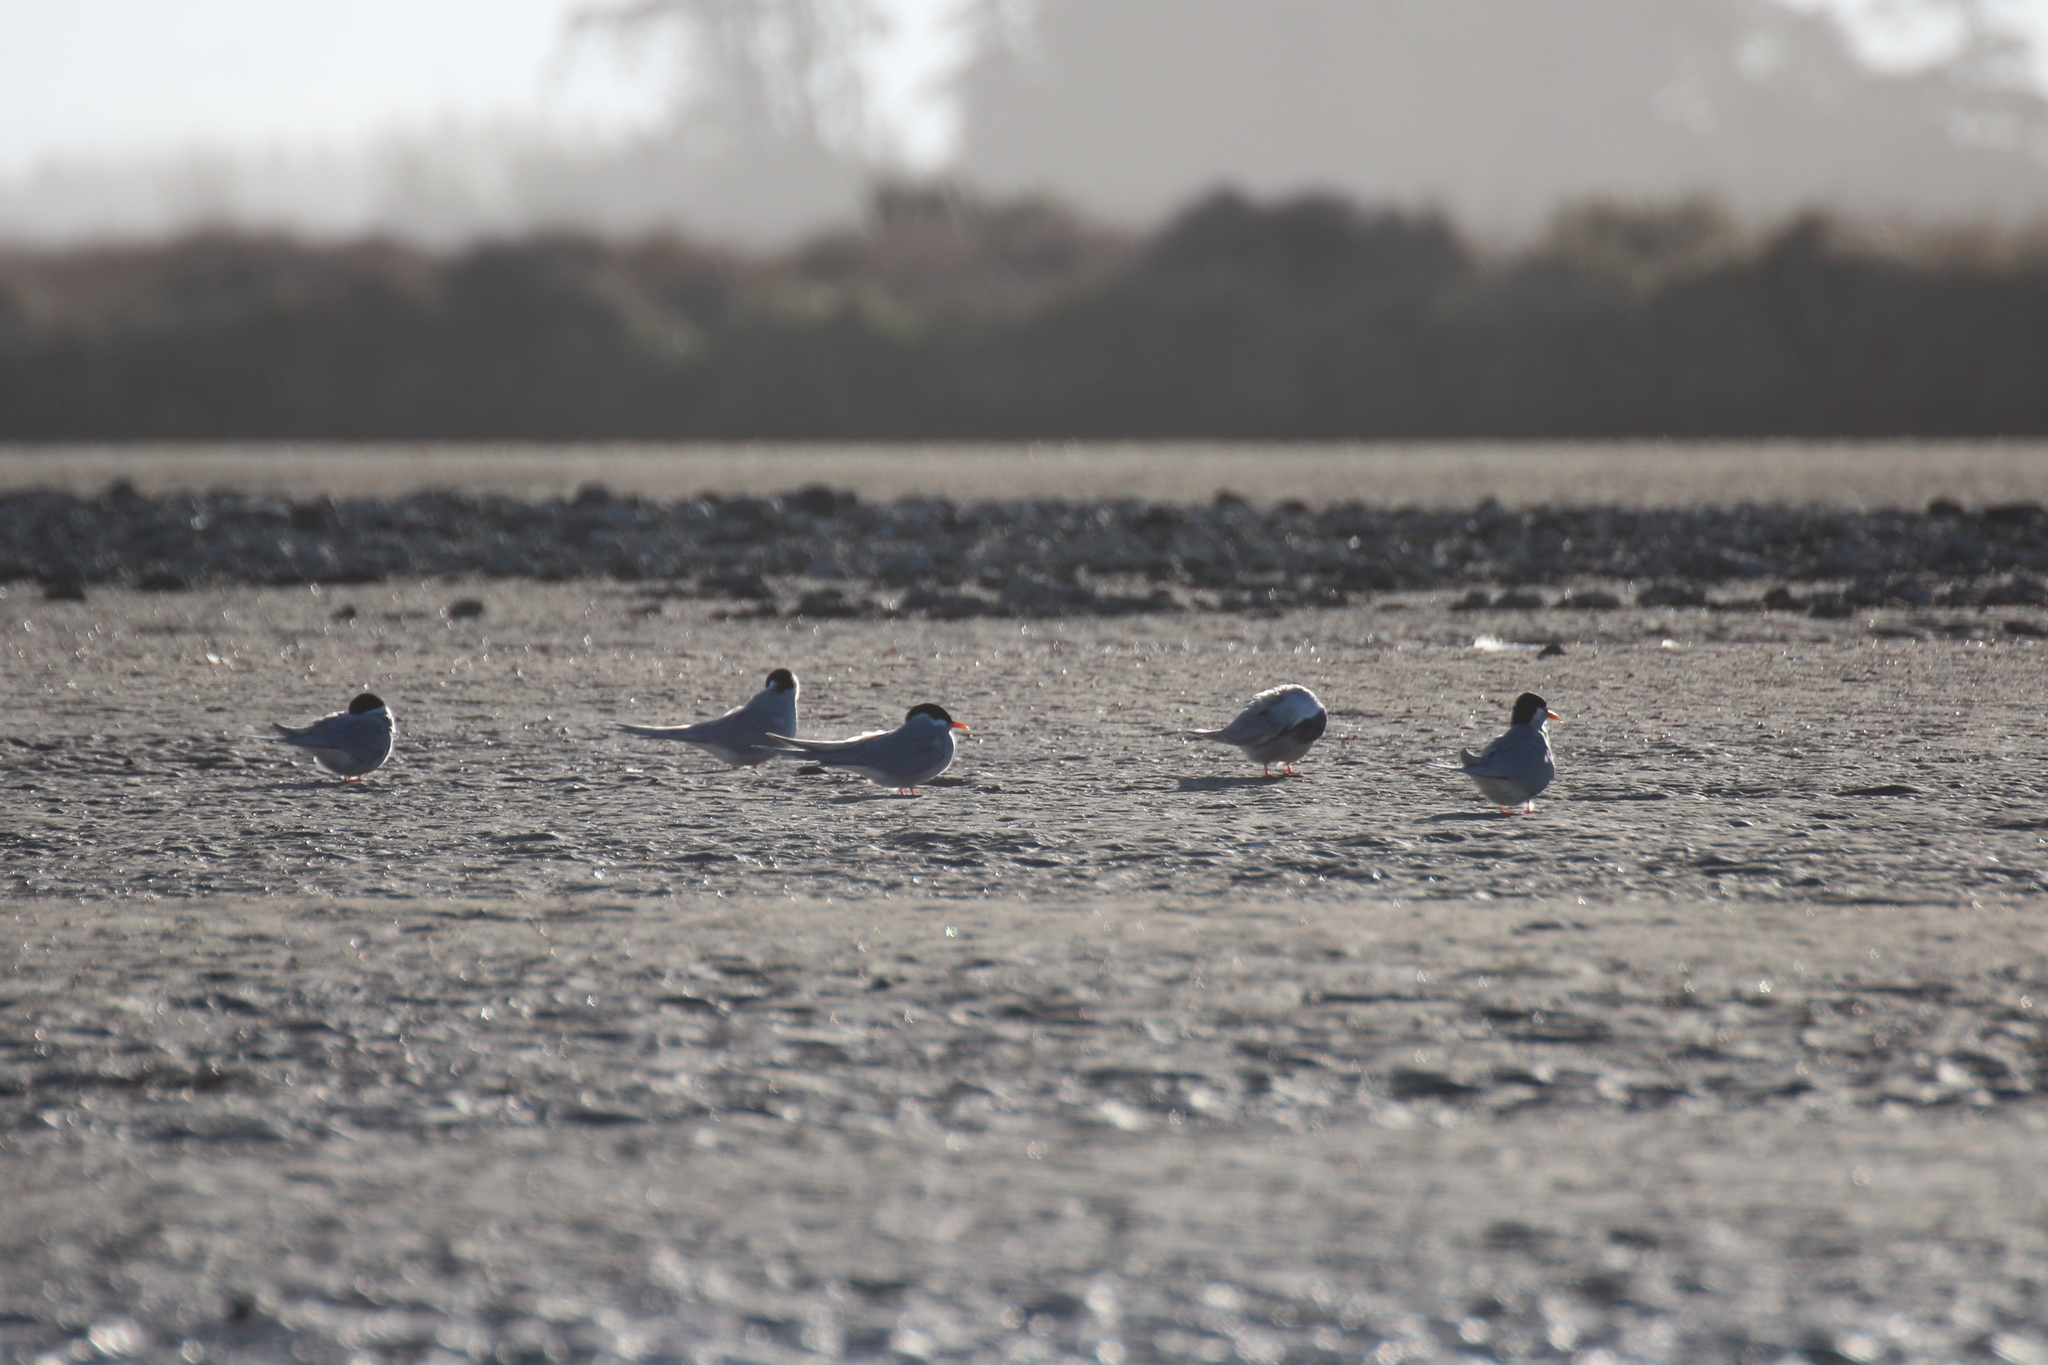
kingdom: Animalia
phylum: Chordata
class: Aves
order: Charadriiformes
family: Laridae
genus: Chlidonias
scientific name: Chlidonias albostriatus
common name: Black-fronted tern
